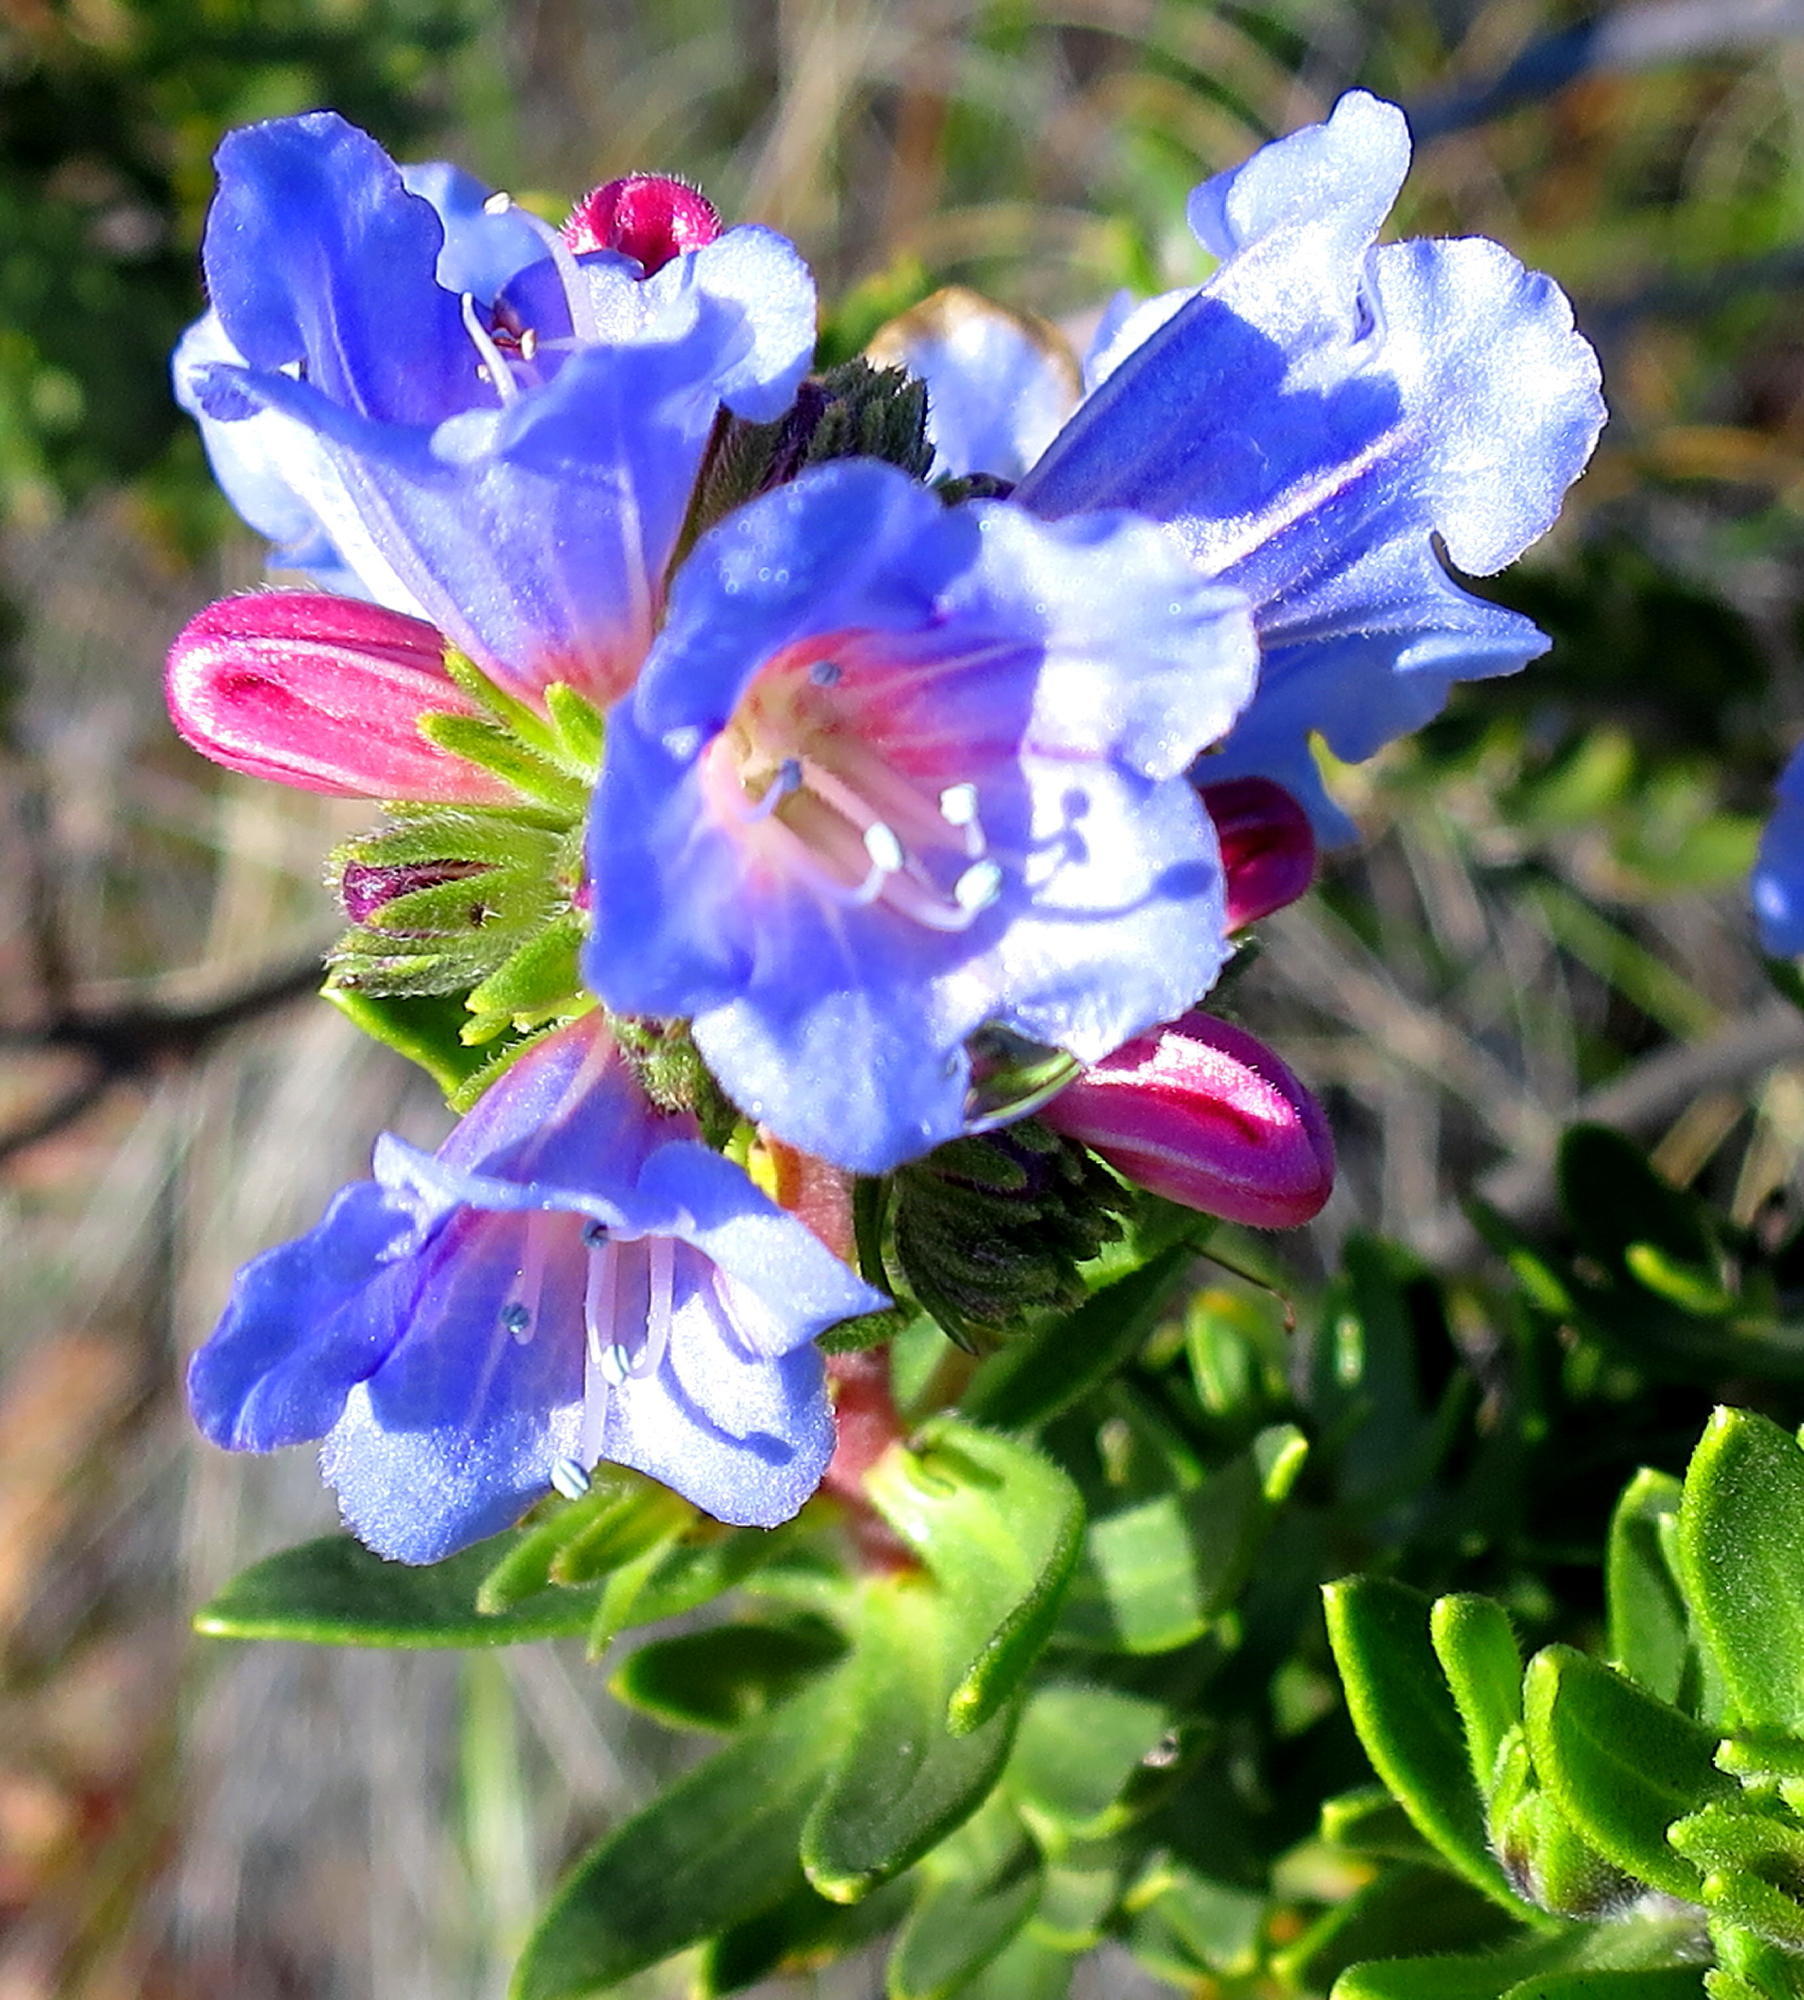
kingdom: Plantae
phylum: Tracheophyta
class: Magnoliopsida
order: Boraginales
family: Boraginaceae
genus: Lobostemon
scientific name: Lobostemon fruticosus
